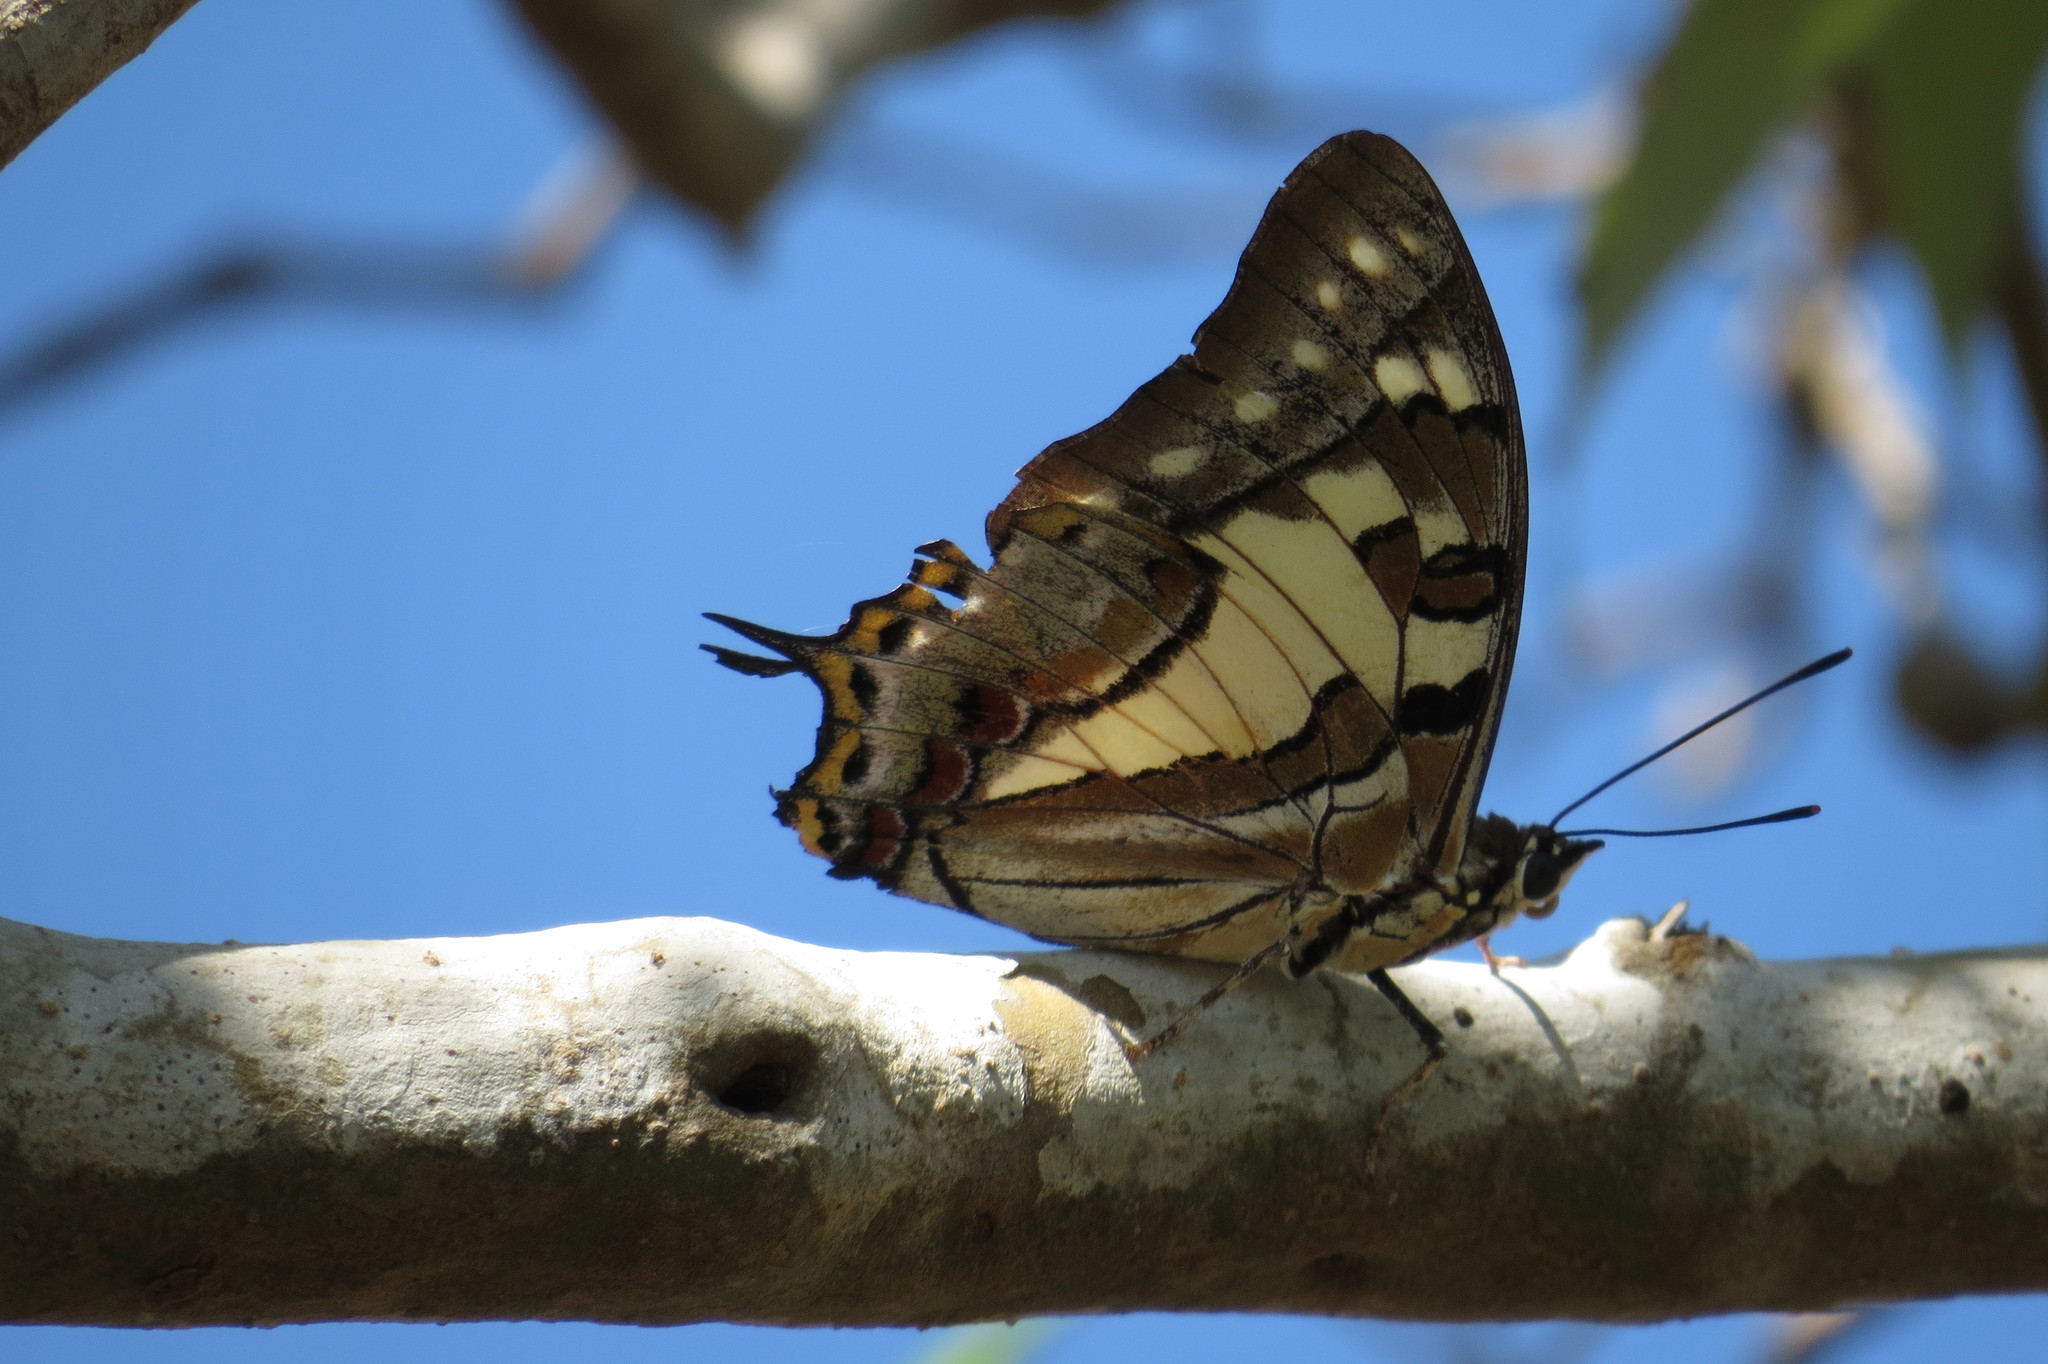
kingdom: Animalia
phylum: Arthropoda
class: Insecta
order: Lepidoptera
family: Nymphalidae
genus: Charaxes
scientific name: Charaxes
